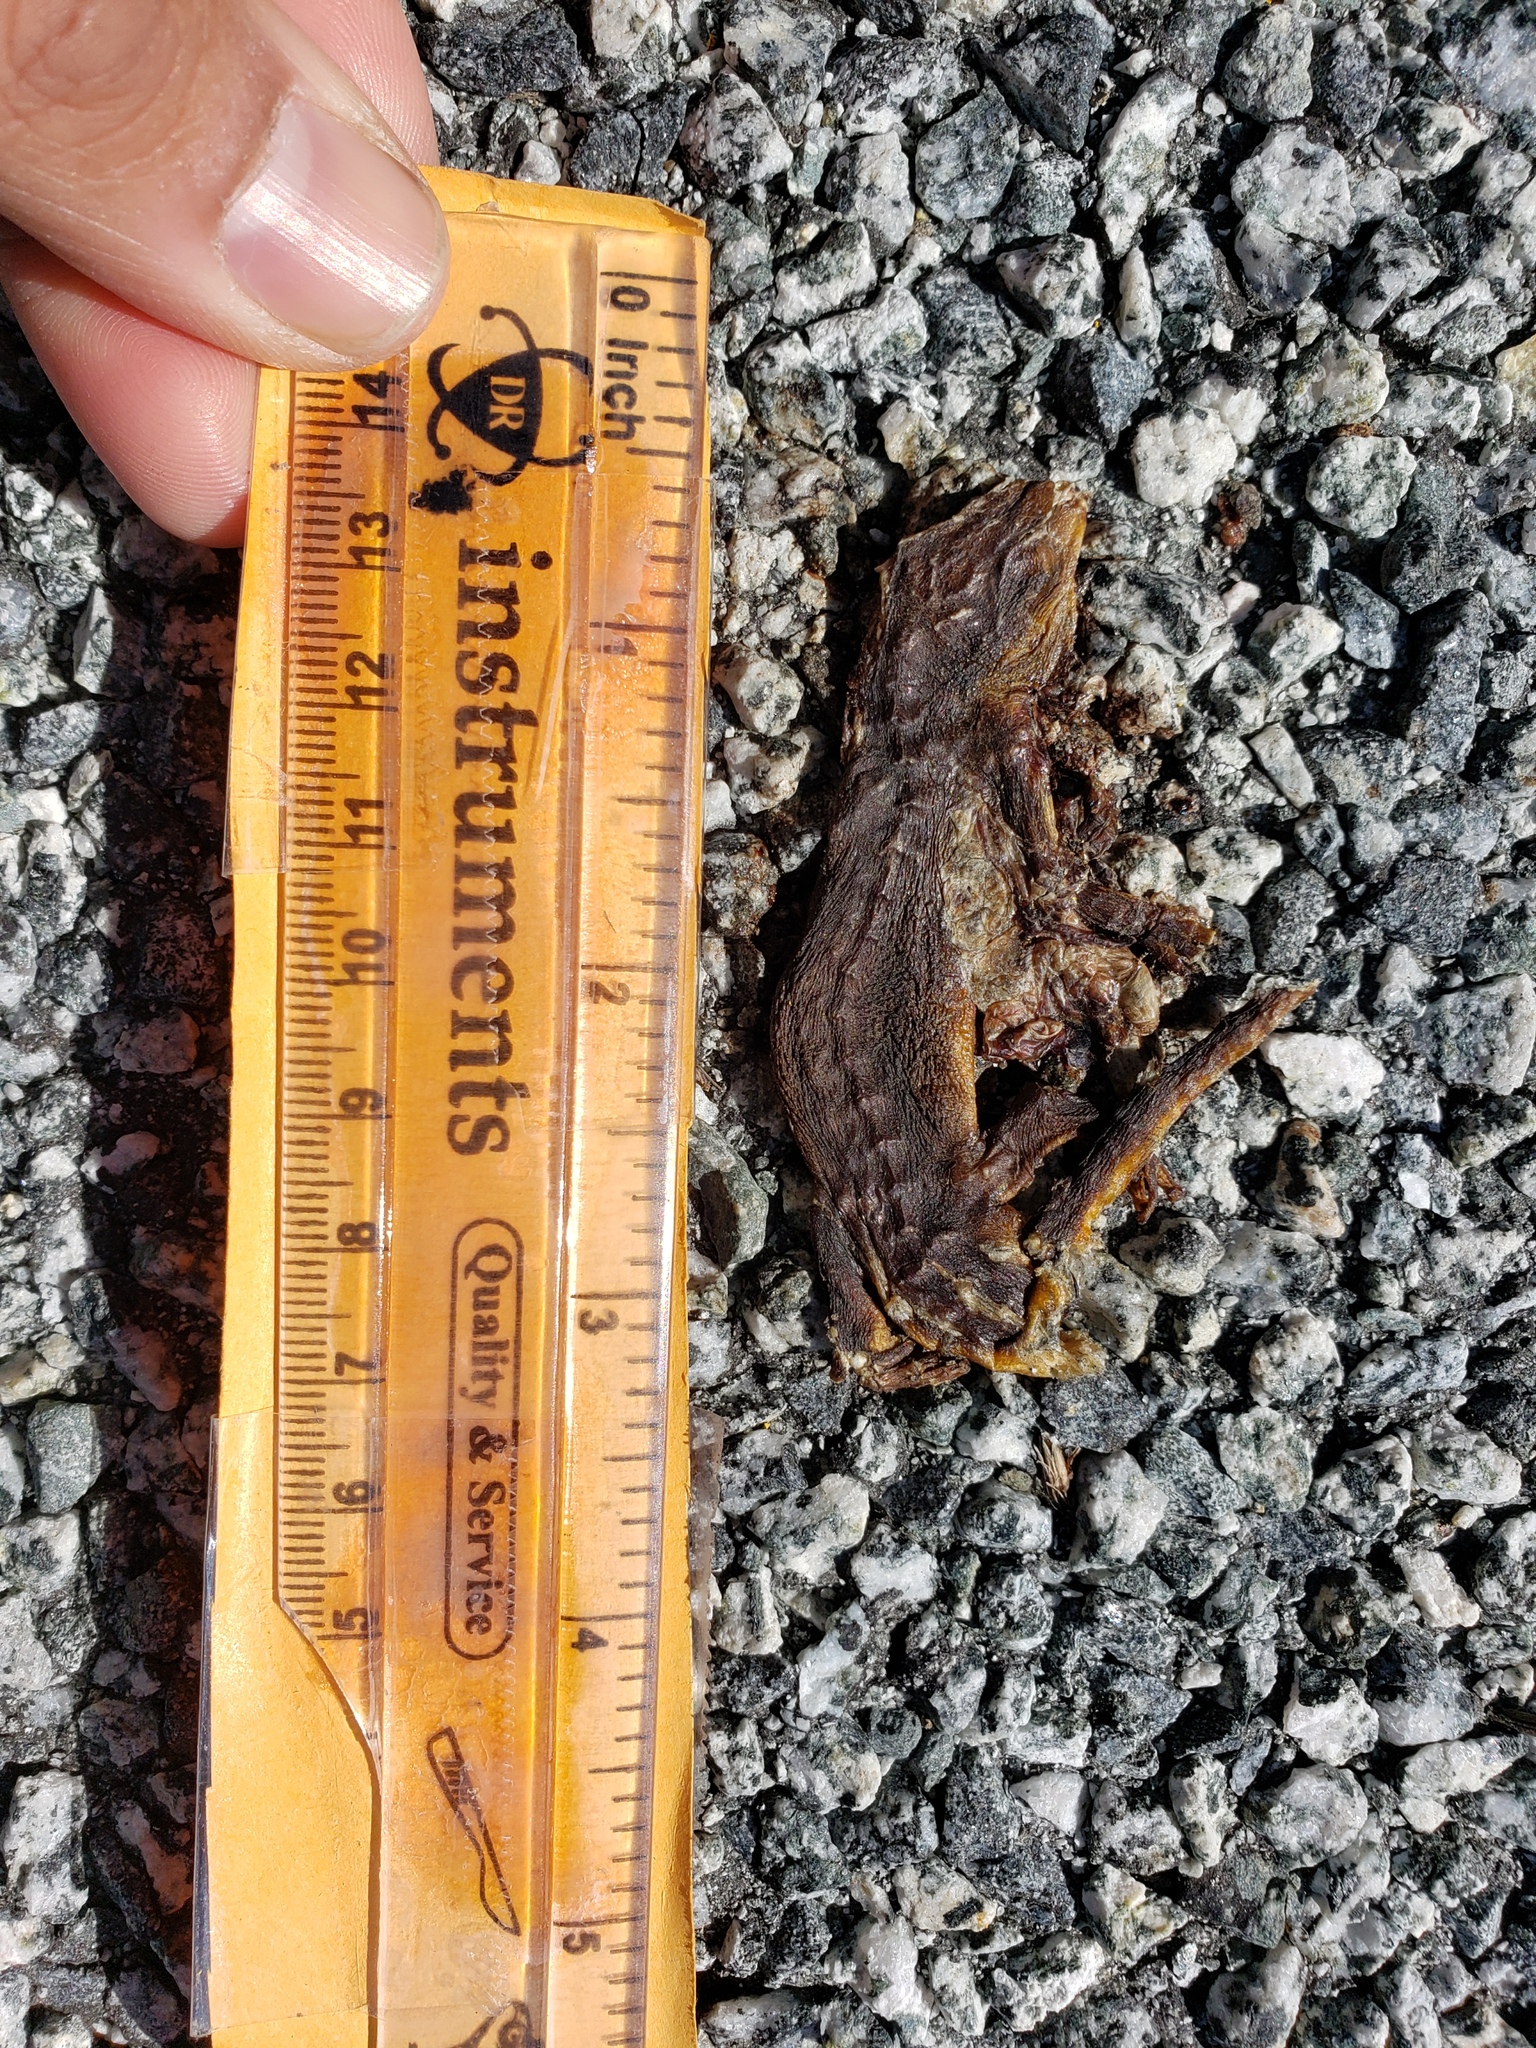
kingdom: Animalia
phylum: Chordata
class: Amphibia
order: Caudata
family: Salamandridae
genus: Taricha
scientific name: Taricha
